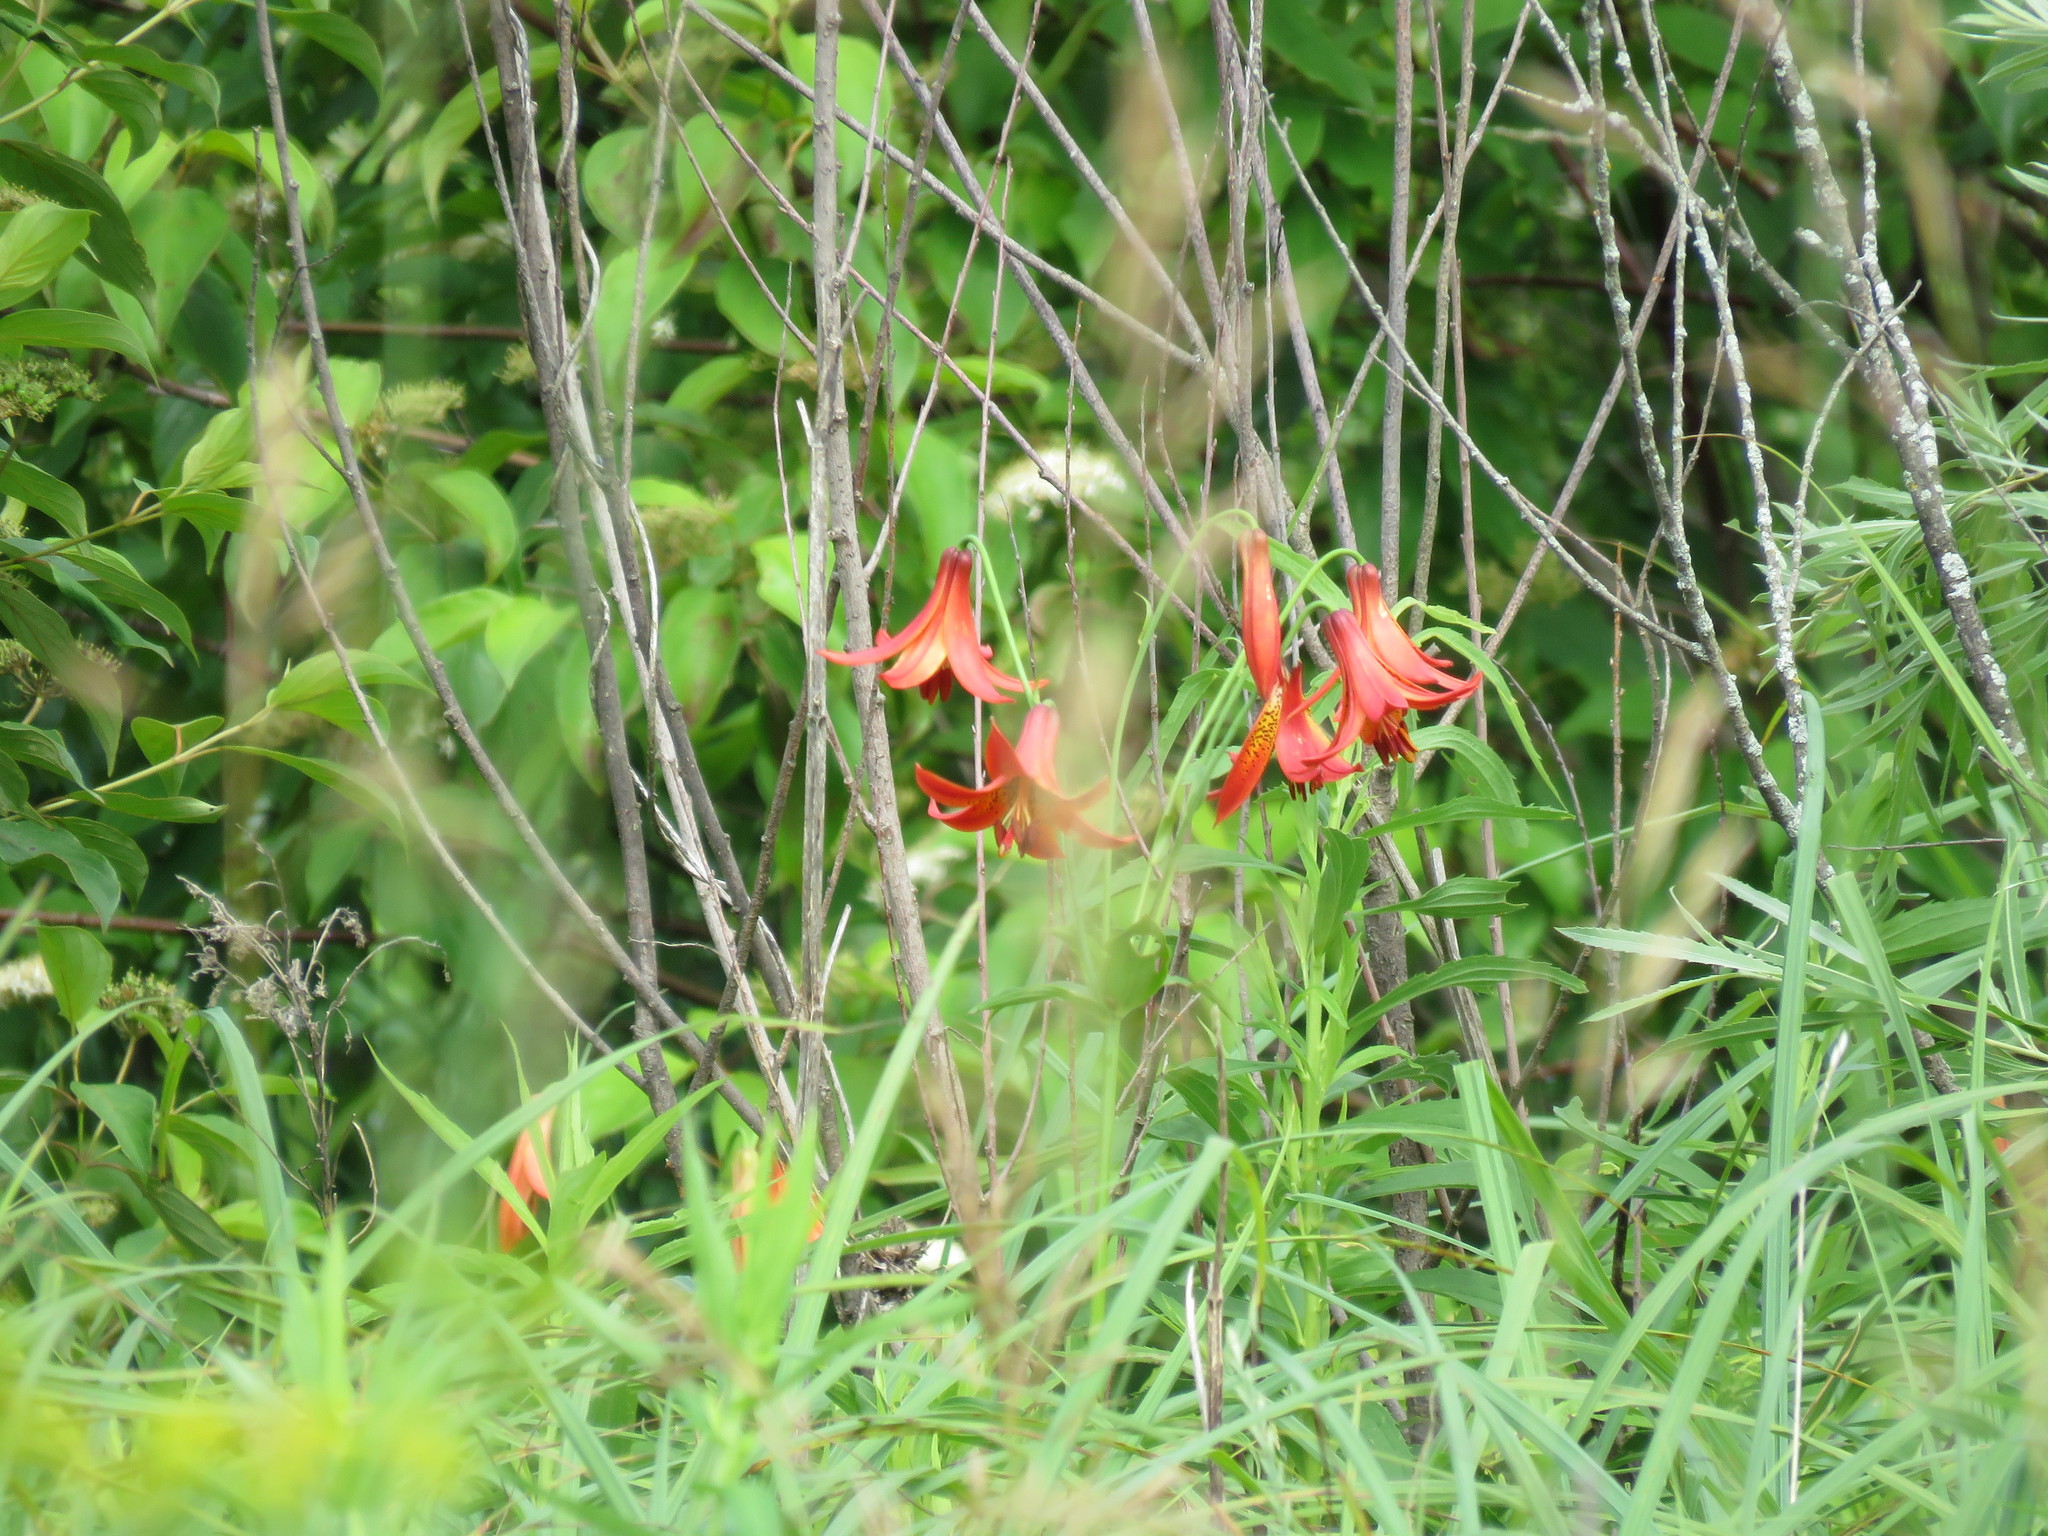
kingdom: Plantae
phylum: Tracheophyta
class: Liliopsida
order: Liliales
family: Liliaceae
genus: Lilium
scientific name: Lilium canadense
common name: Canada lily
